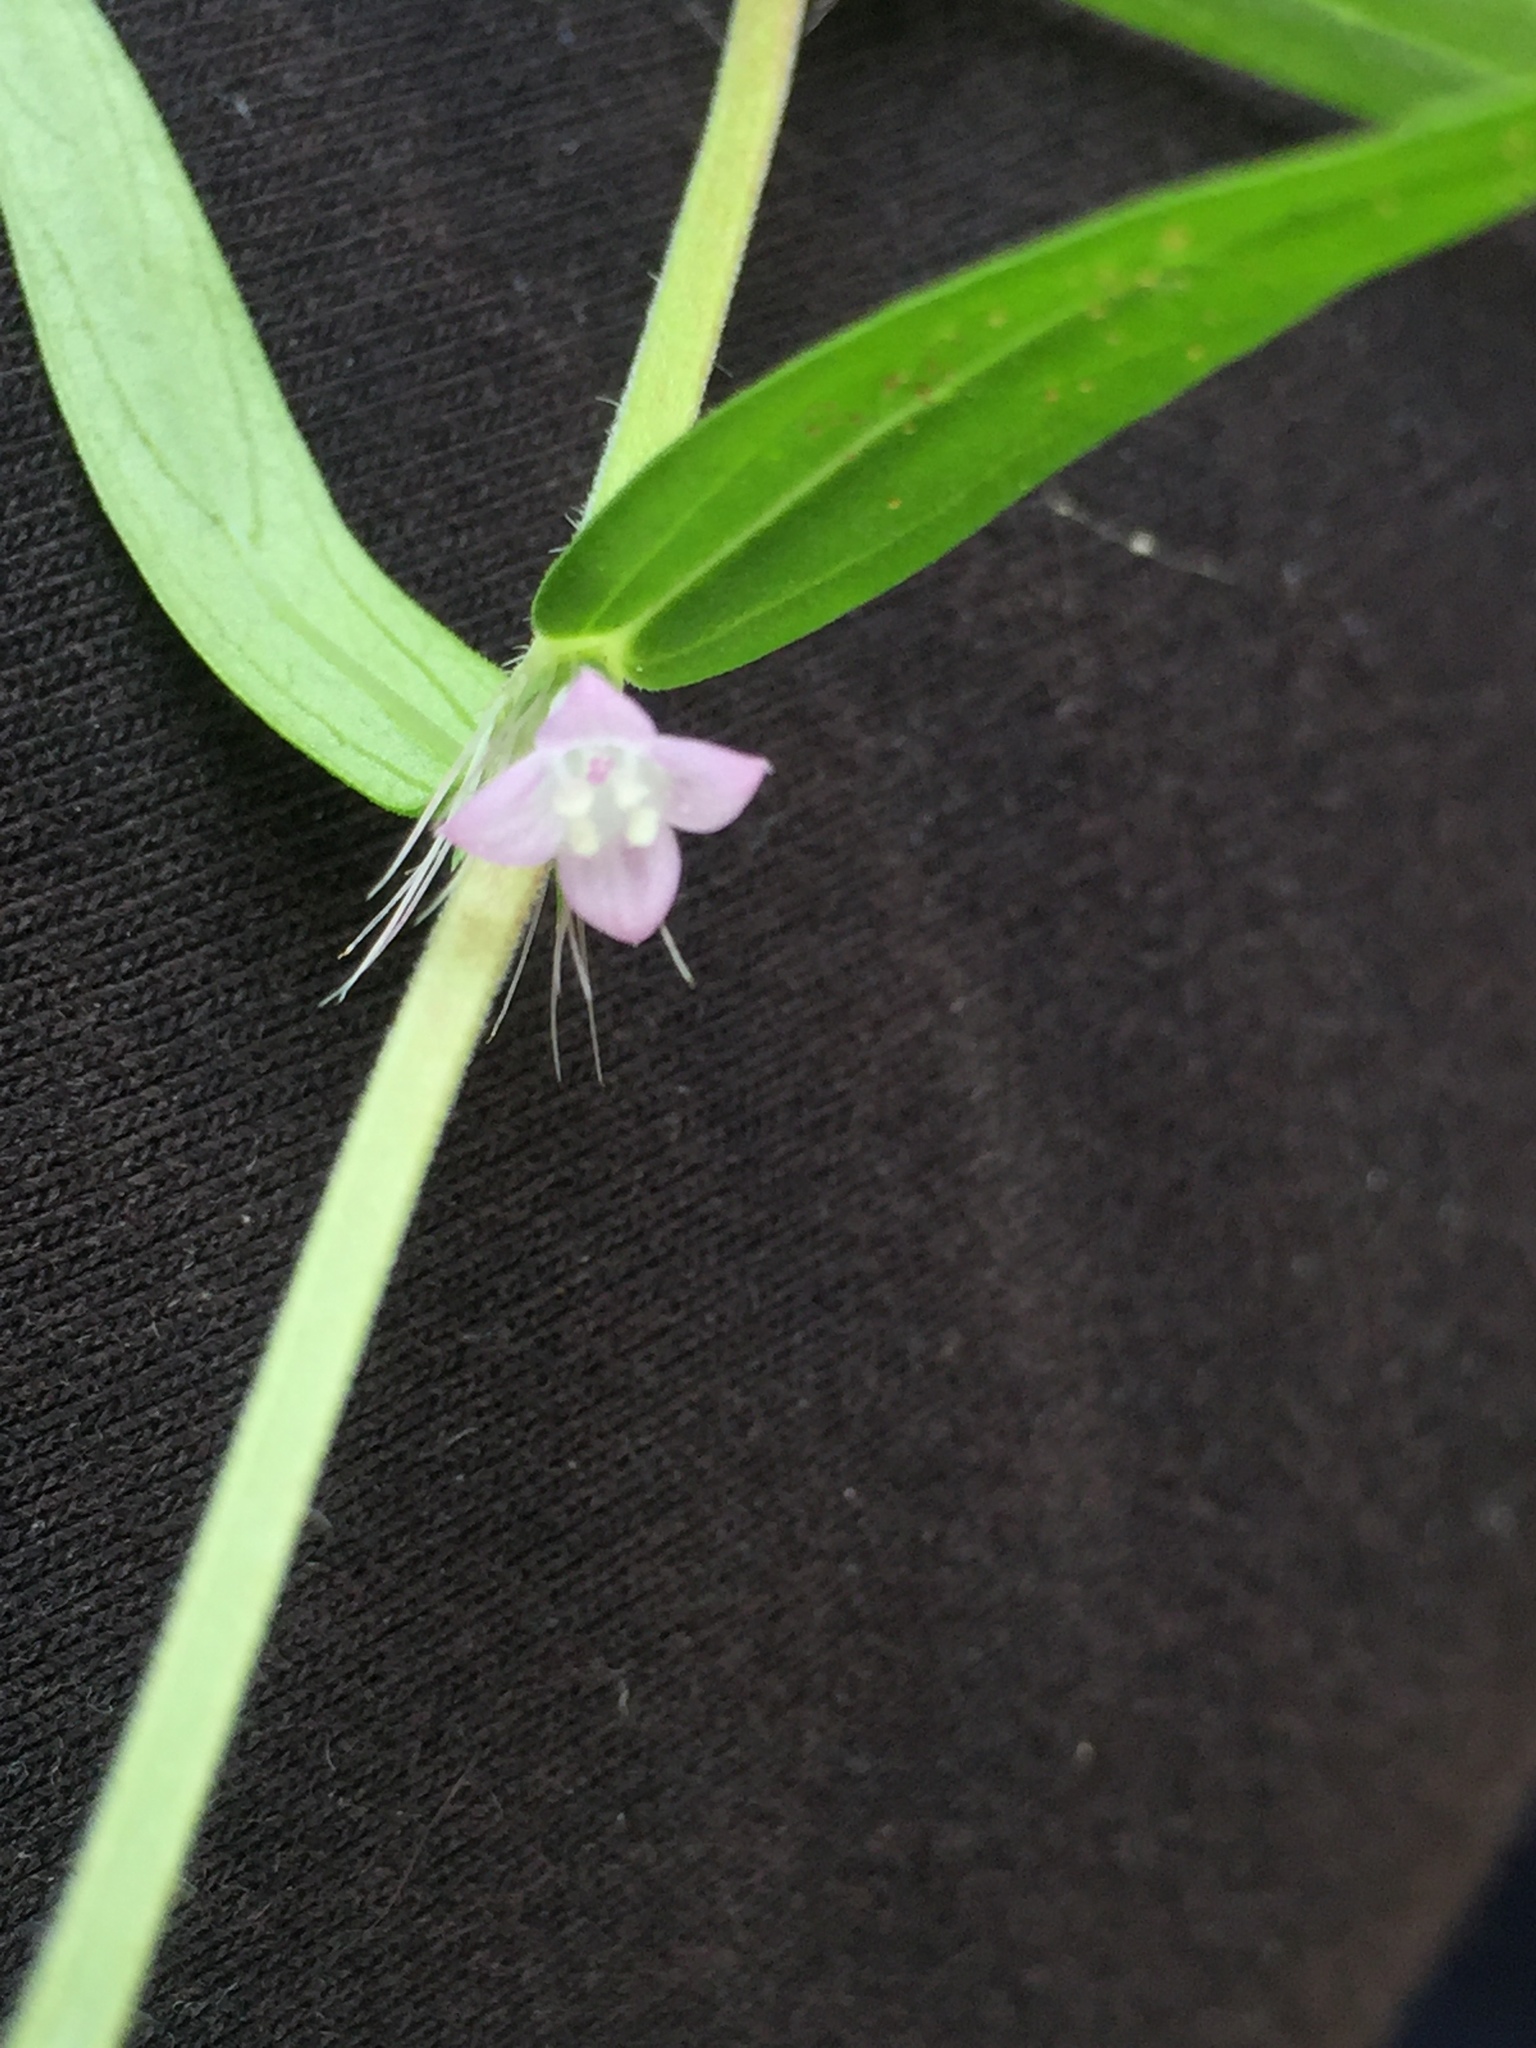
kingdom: Plantae
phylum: Tracheophyta
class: Magnoliopsida
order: Gentianales
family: Rubiaceae
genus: Hexasepalum
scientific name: Hexasepalum teres
